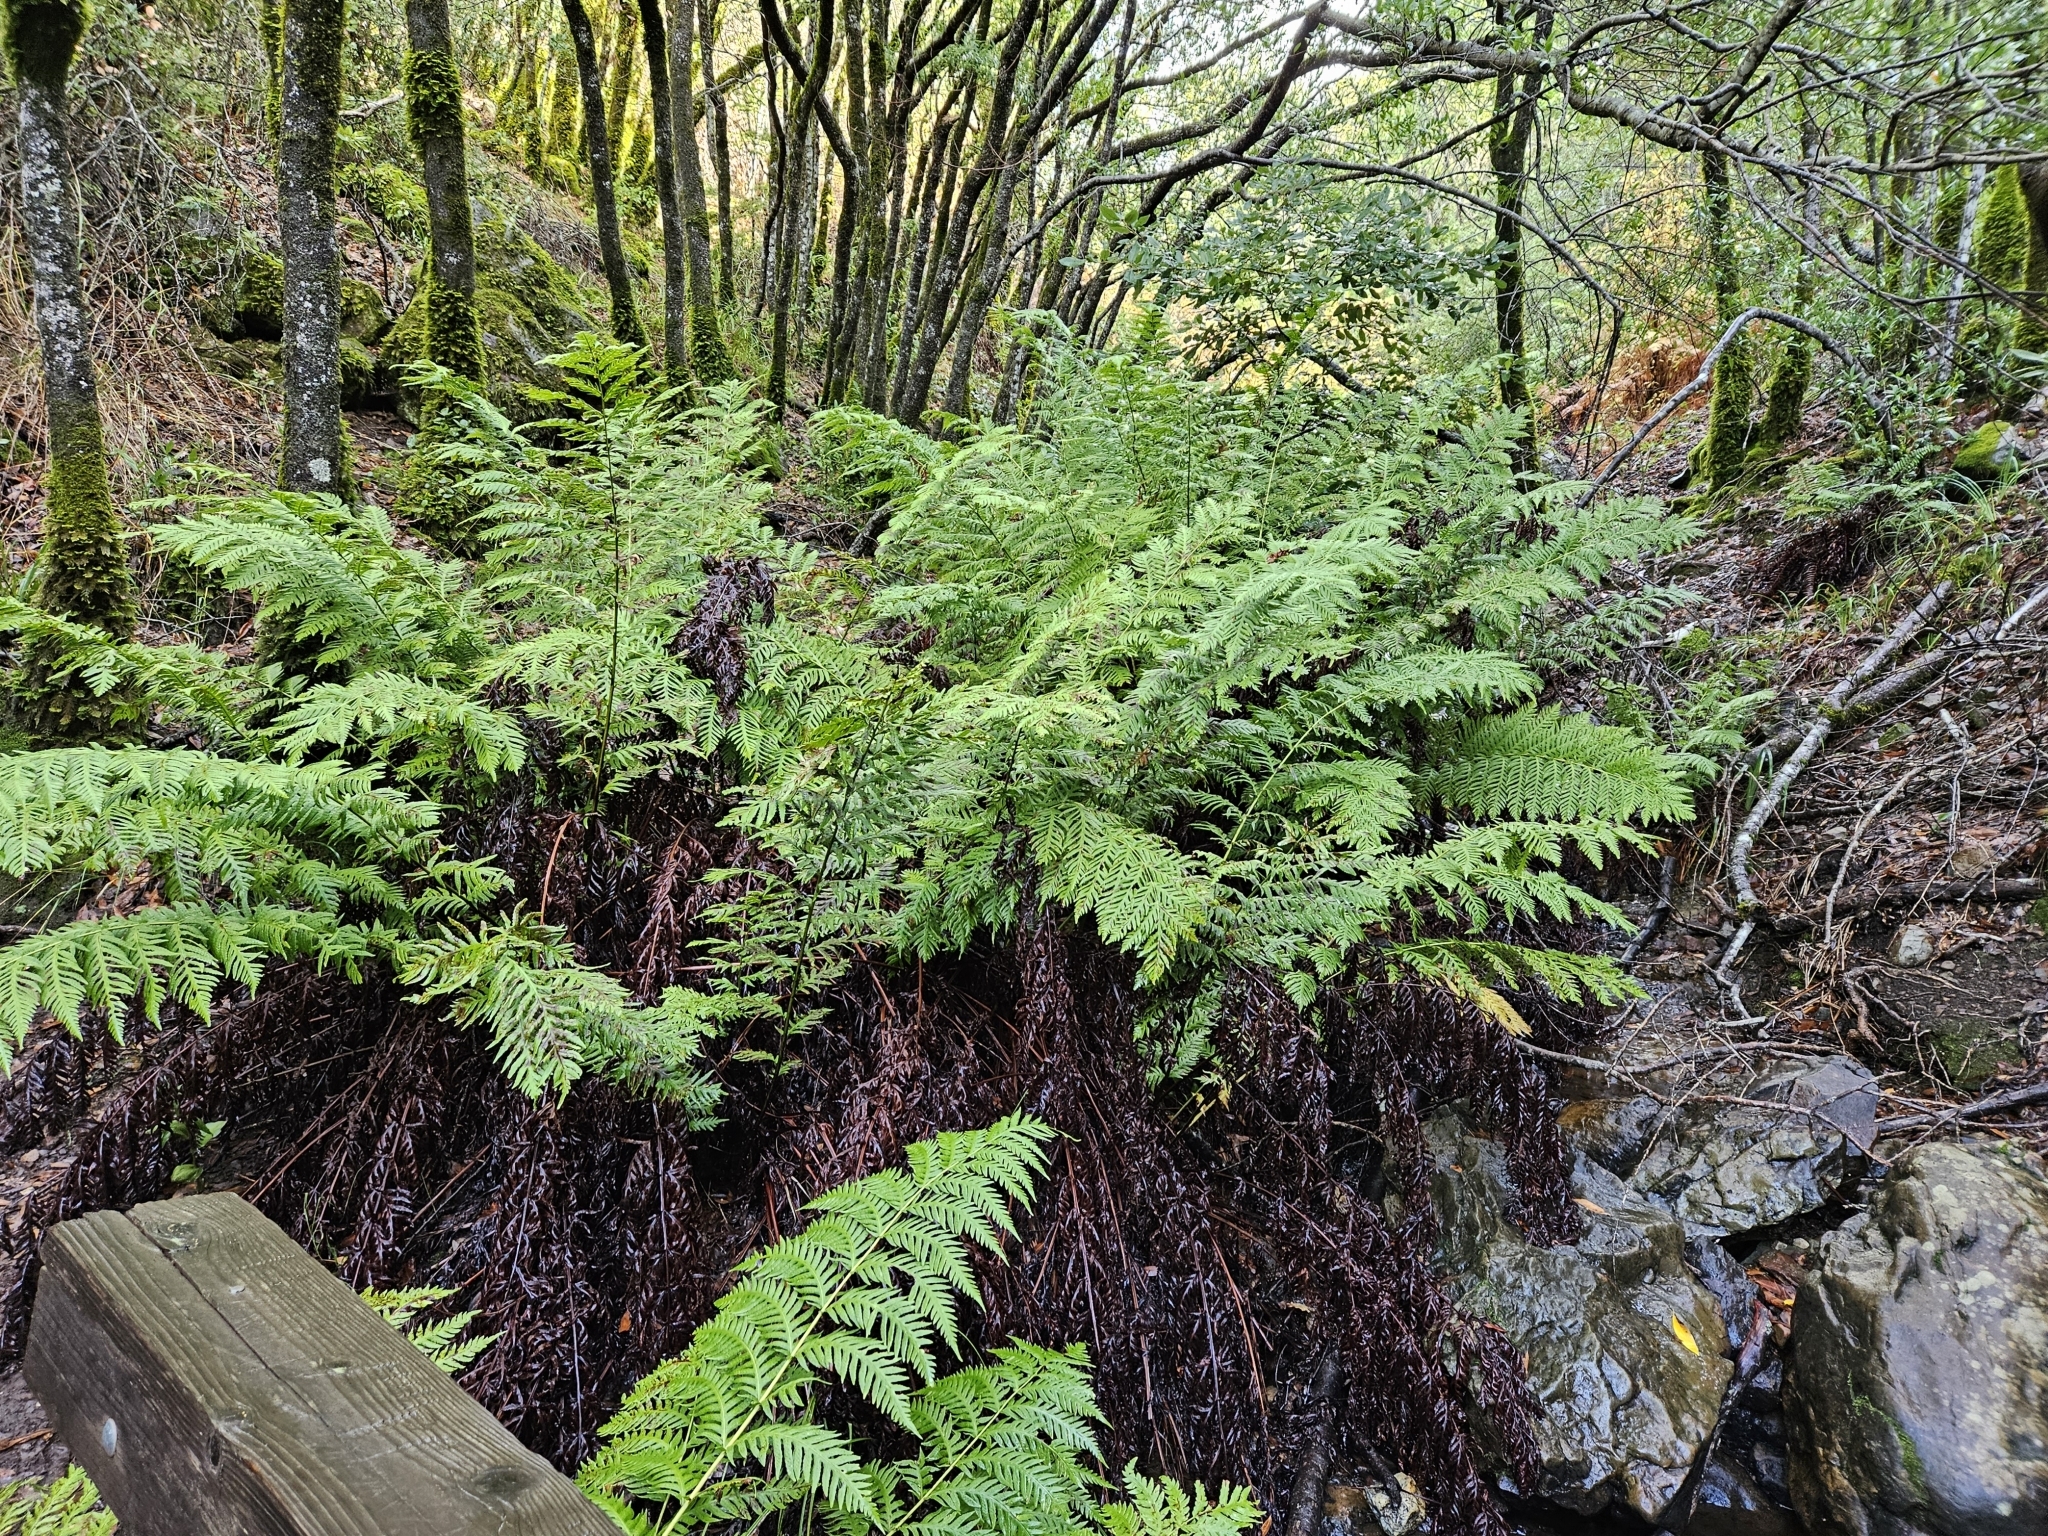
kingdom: Plantae
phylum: Tracheophyta
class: Polypodiopsida
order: Polypodiales
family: Blechnaceae
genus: Woodwardia
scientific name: Woodwardia fimbriata
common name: Giant chain fern
